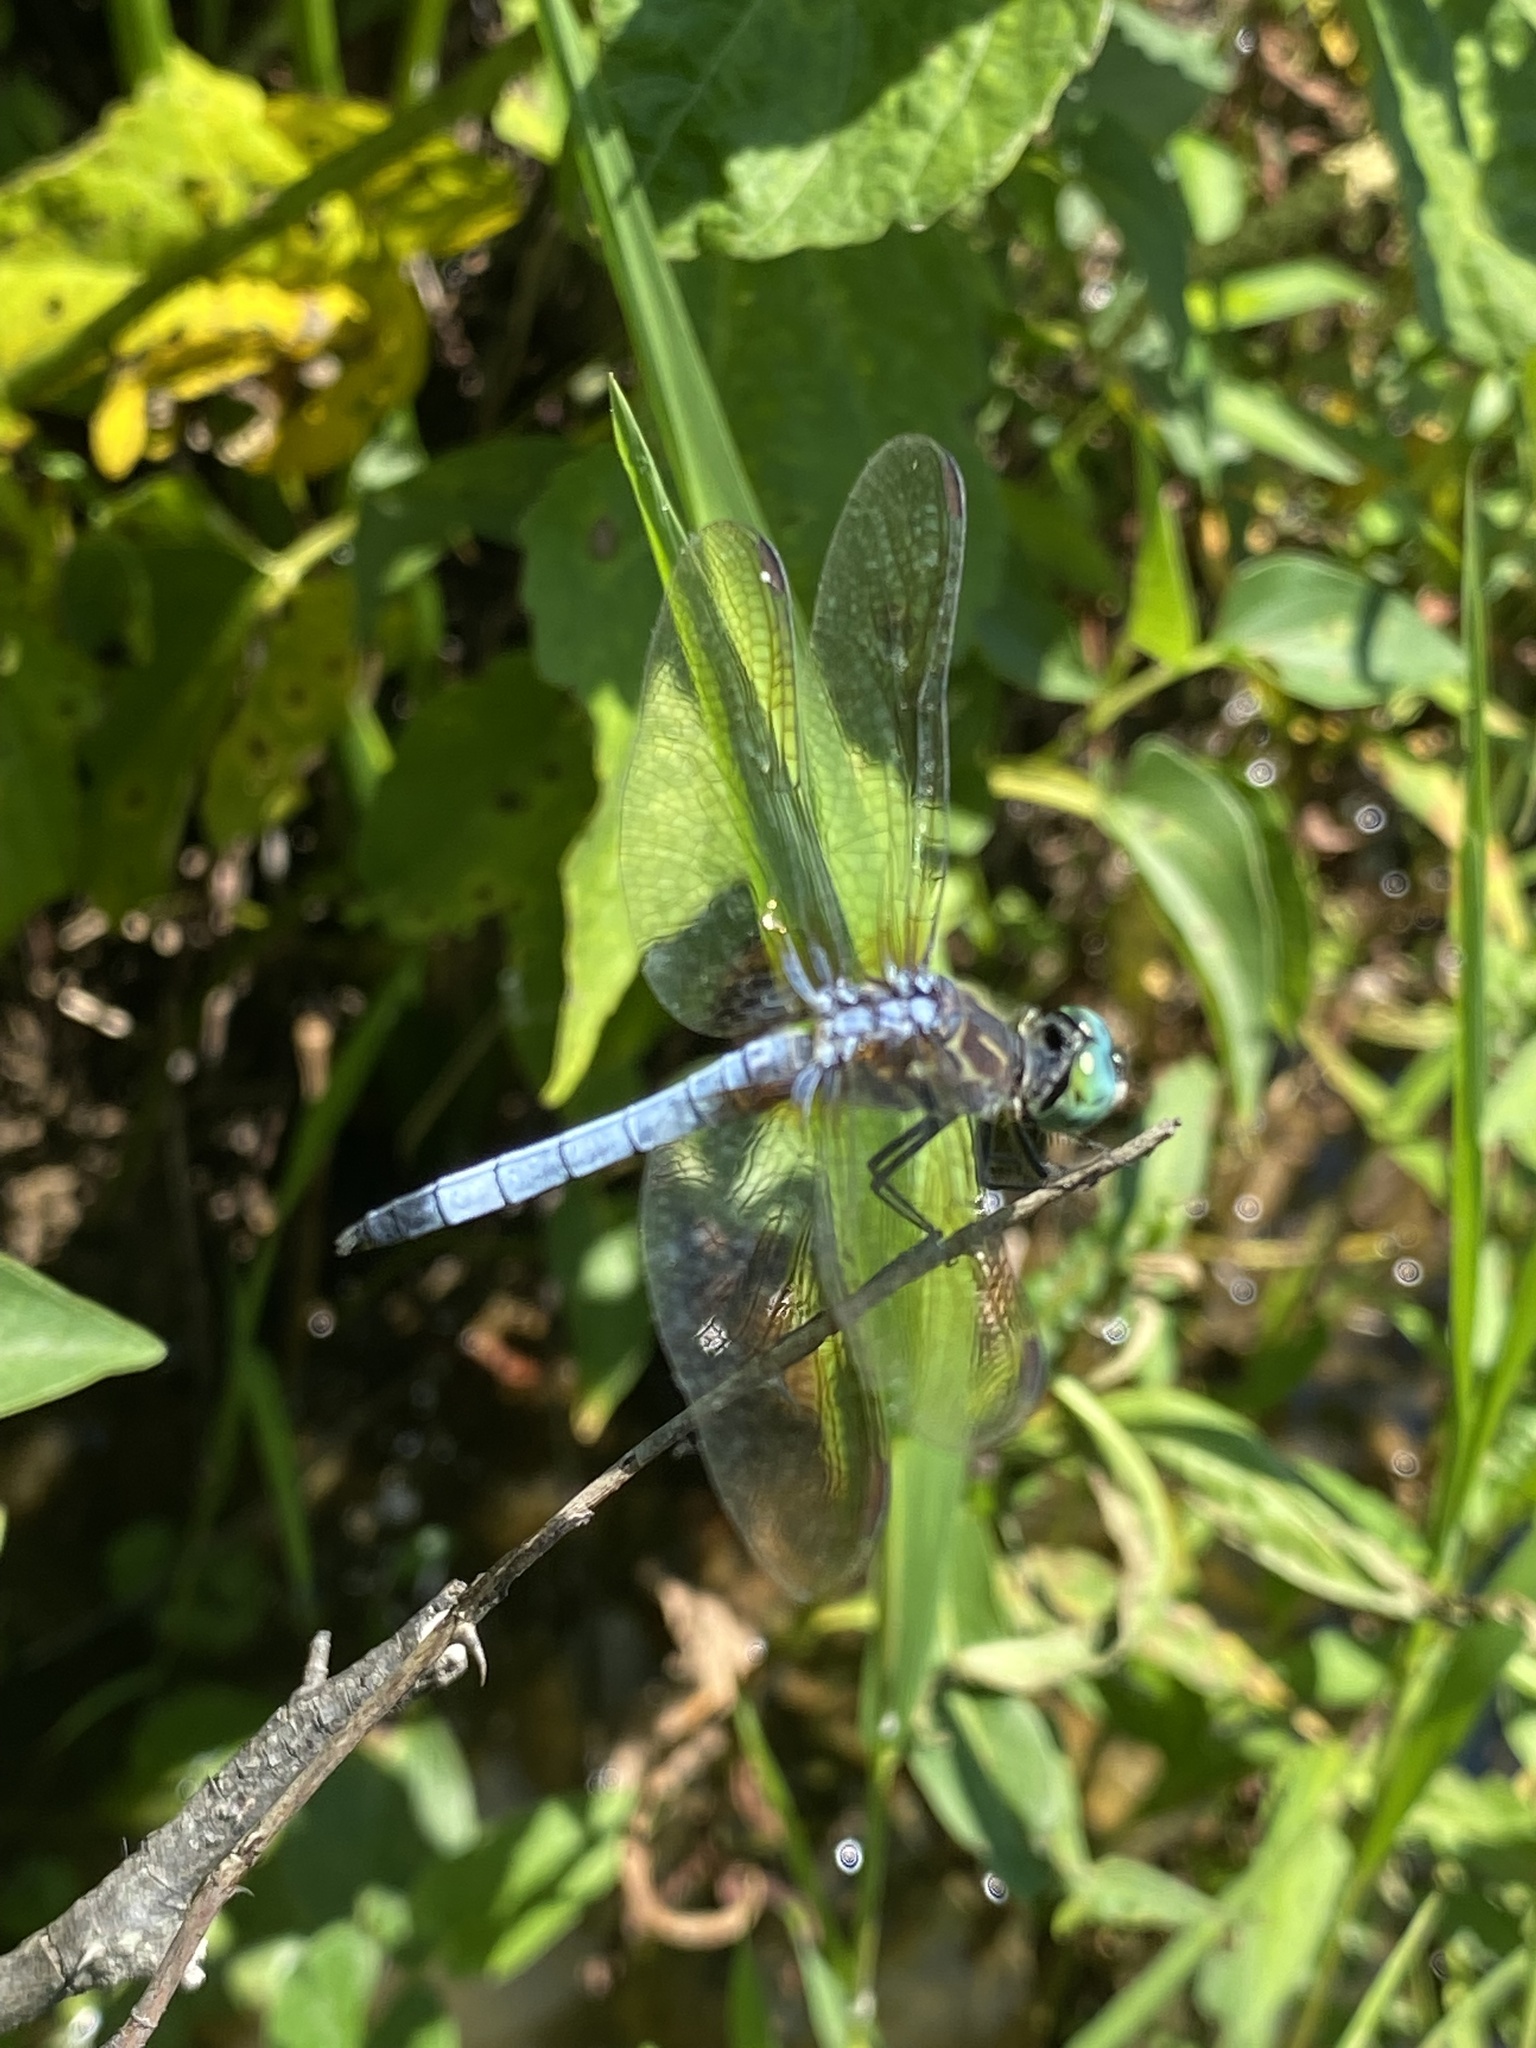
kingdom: Animalia
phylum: Arthropoda
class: Insecta
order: Odonata
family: Libellulidae
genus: Pachydiplax
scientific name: Pachydiplax longipennis
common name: Blue dasher
